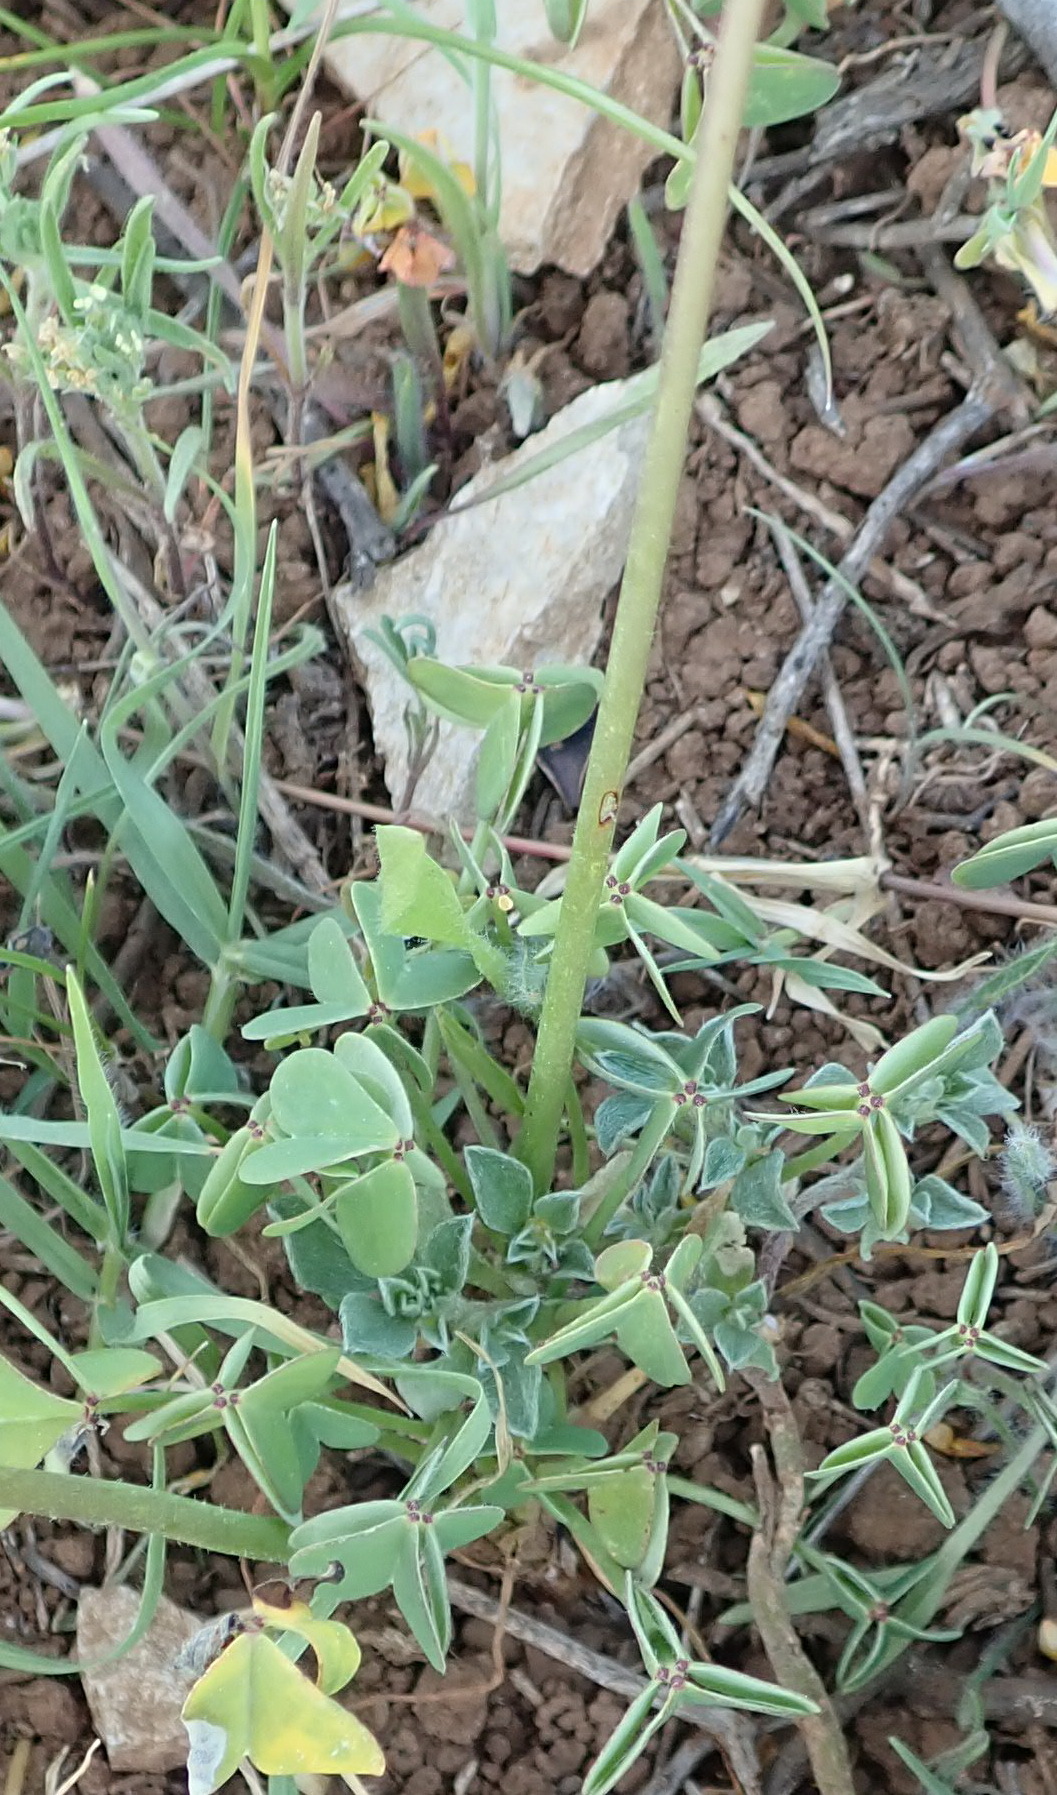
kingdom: Plantae
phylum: Tracheophyta
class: Magnoliopsida
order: Oxalidales
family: Oxalidaceae
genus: Oxalis
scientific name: Oxalis pes-caprae
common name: Bermuda-buttercup
